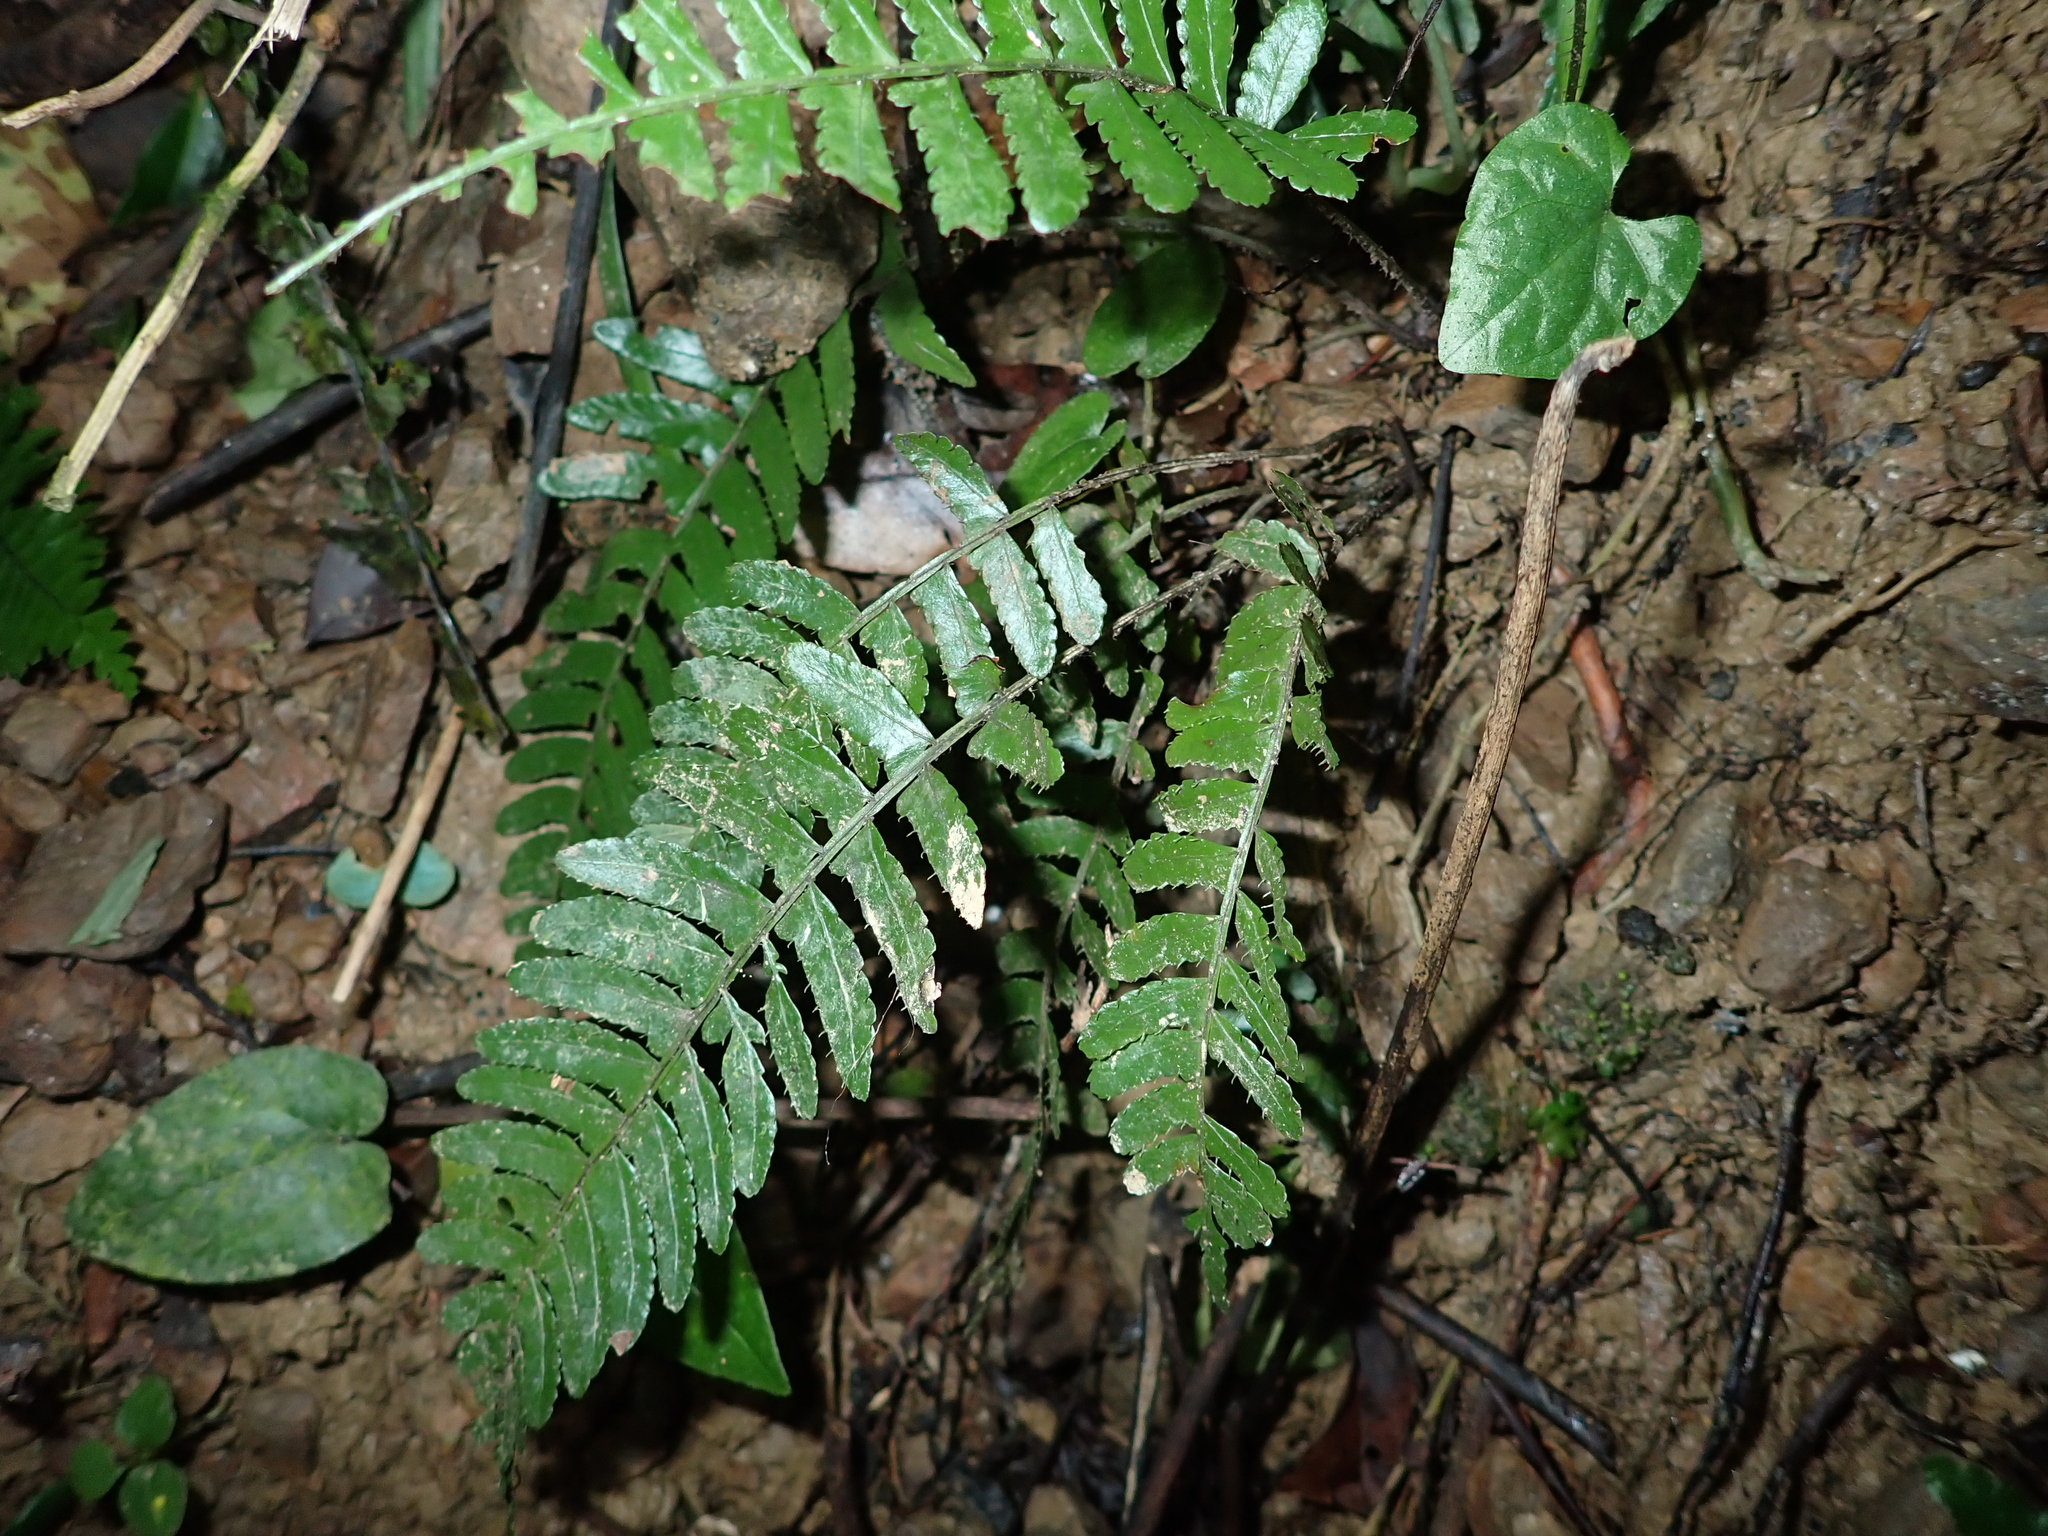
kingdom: Plantae
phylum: Tracheophyta
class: Polypodiopsida
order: Polypodiales
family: Dryopteridaceae
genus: Bolbitis
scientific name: Bolbitis appendiculata
